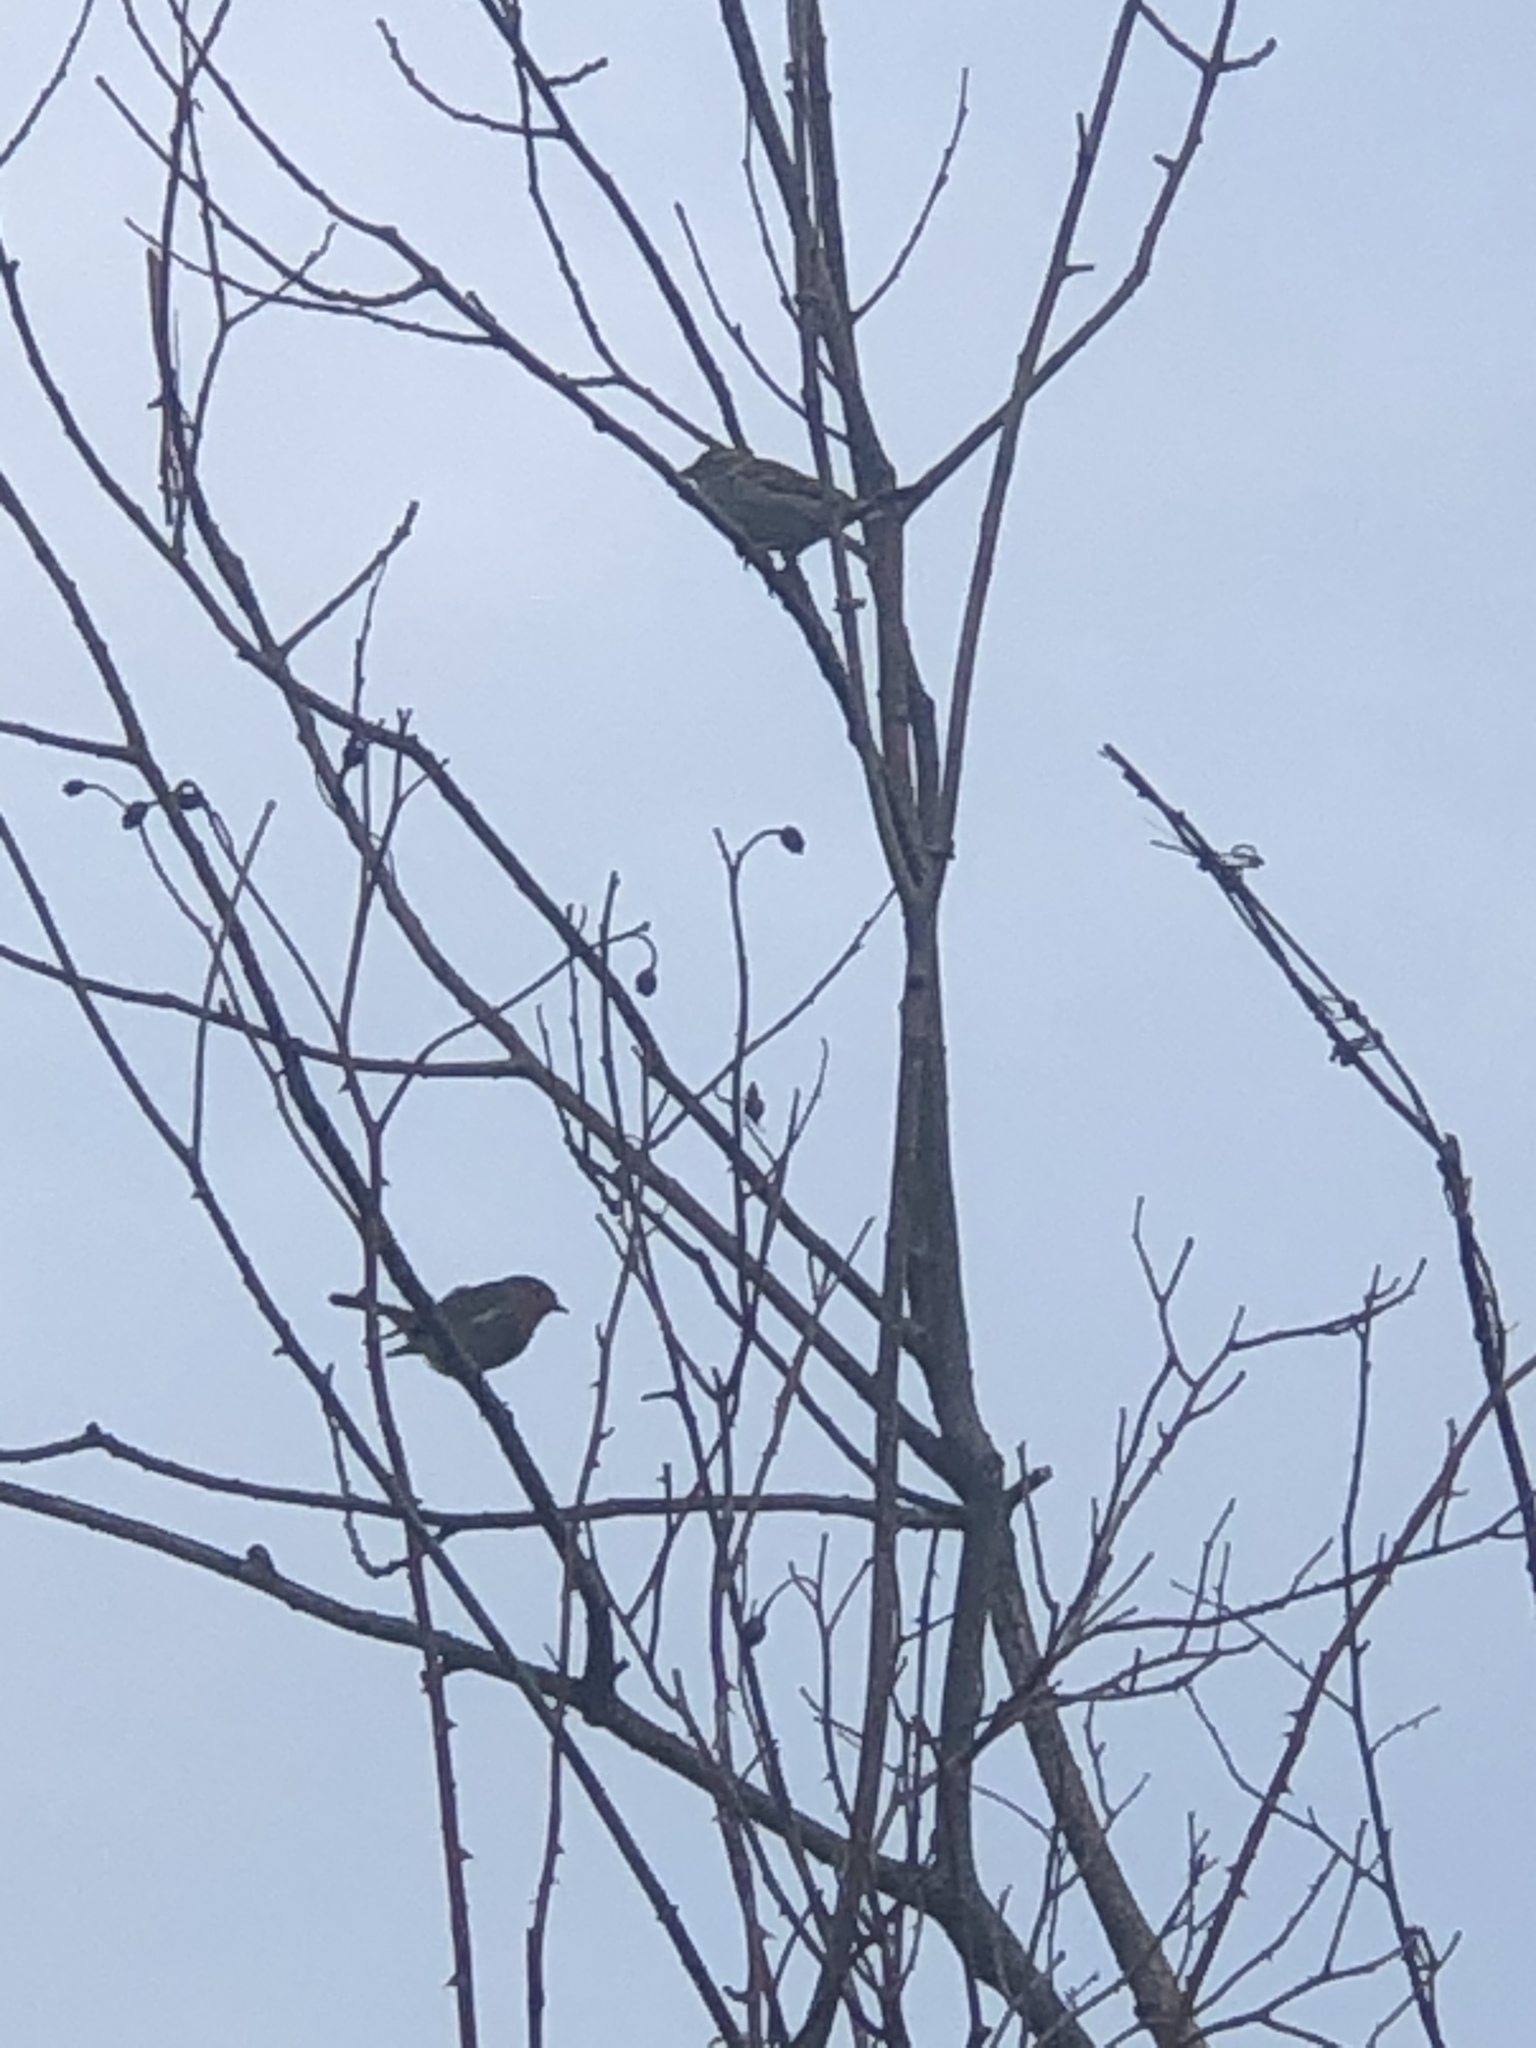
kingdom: Animalia
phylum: Chordata
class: Aves
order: Passeriformes
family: Muscicapidae
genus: Erithacus
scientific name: Erithacus rubecula
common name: European robin
